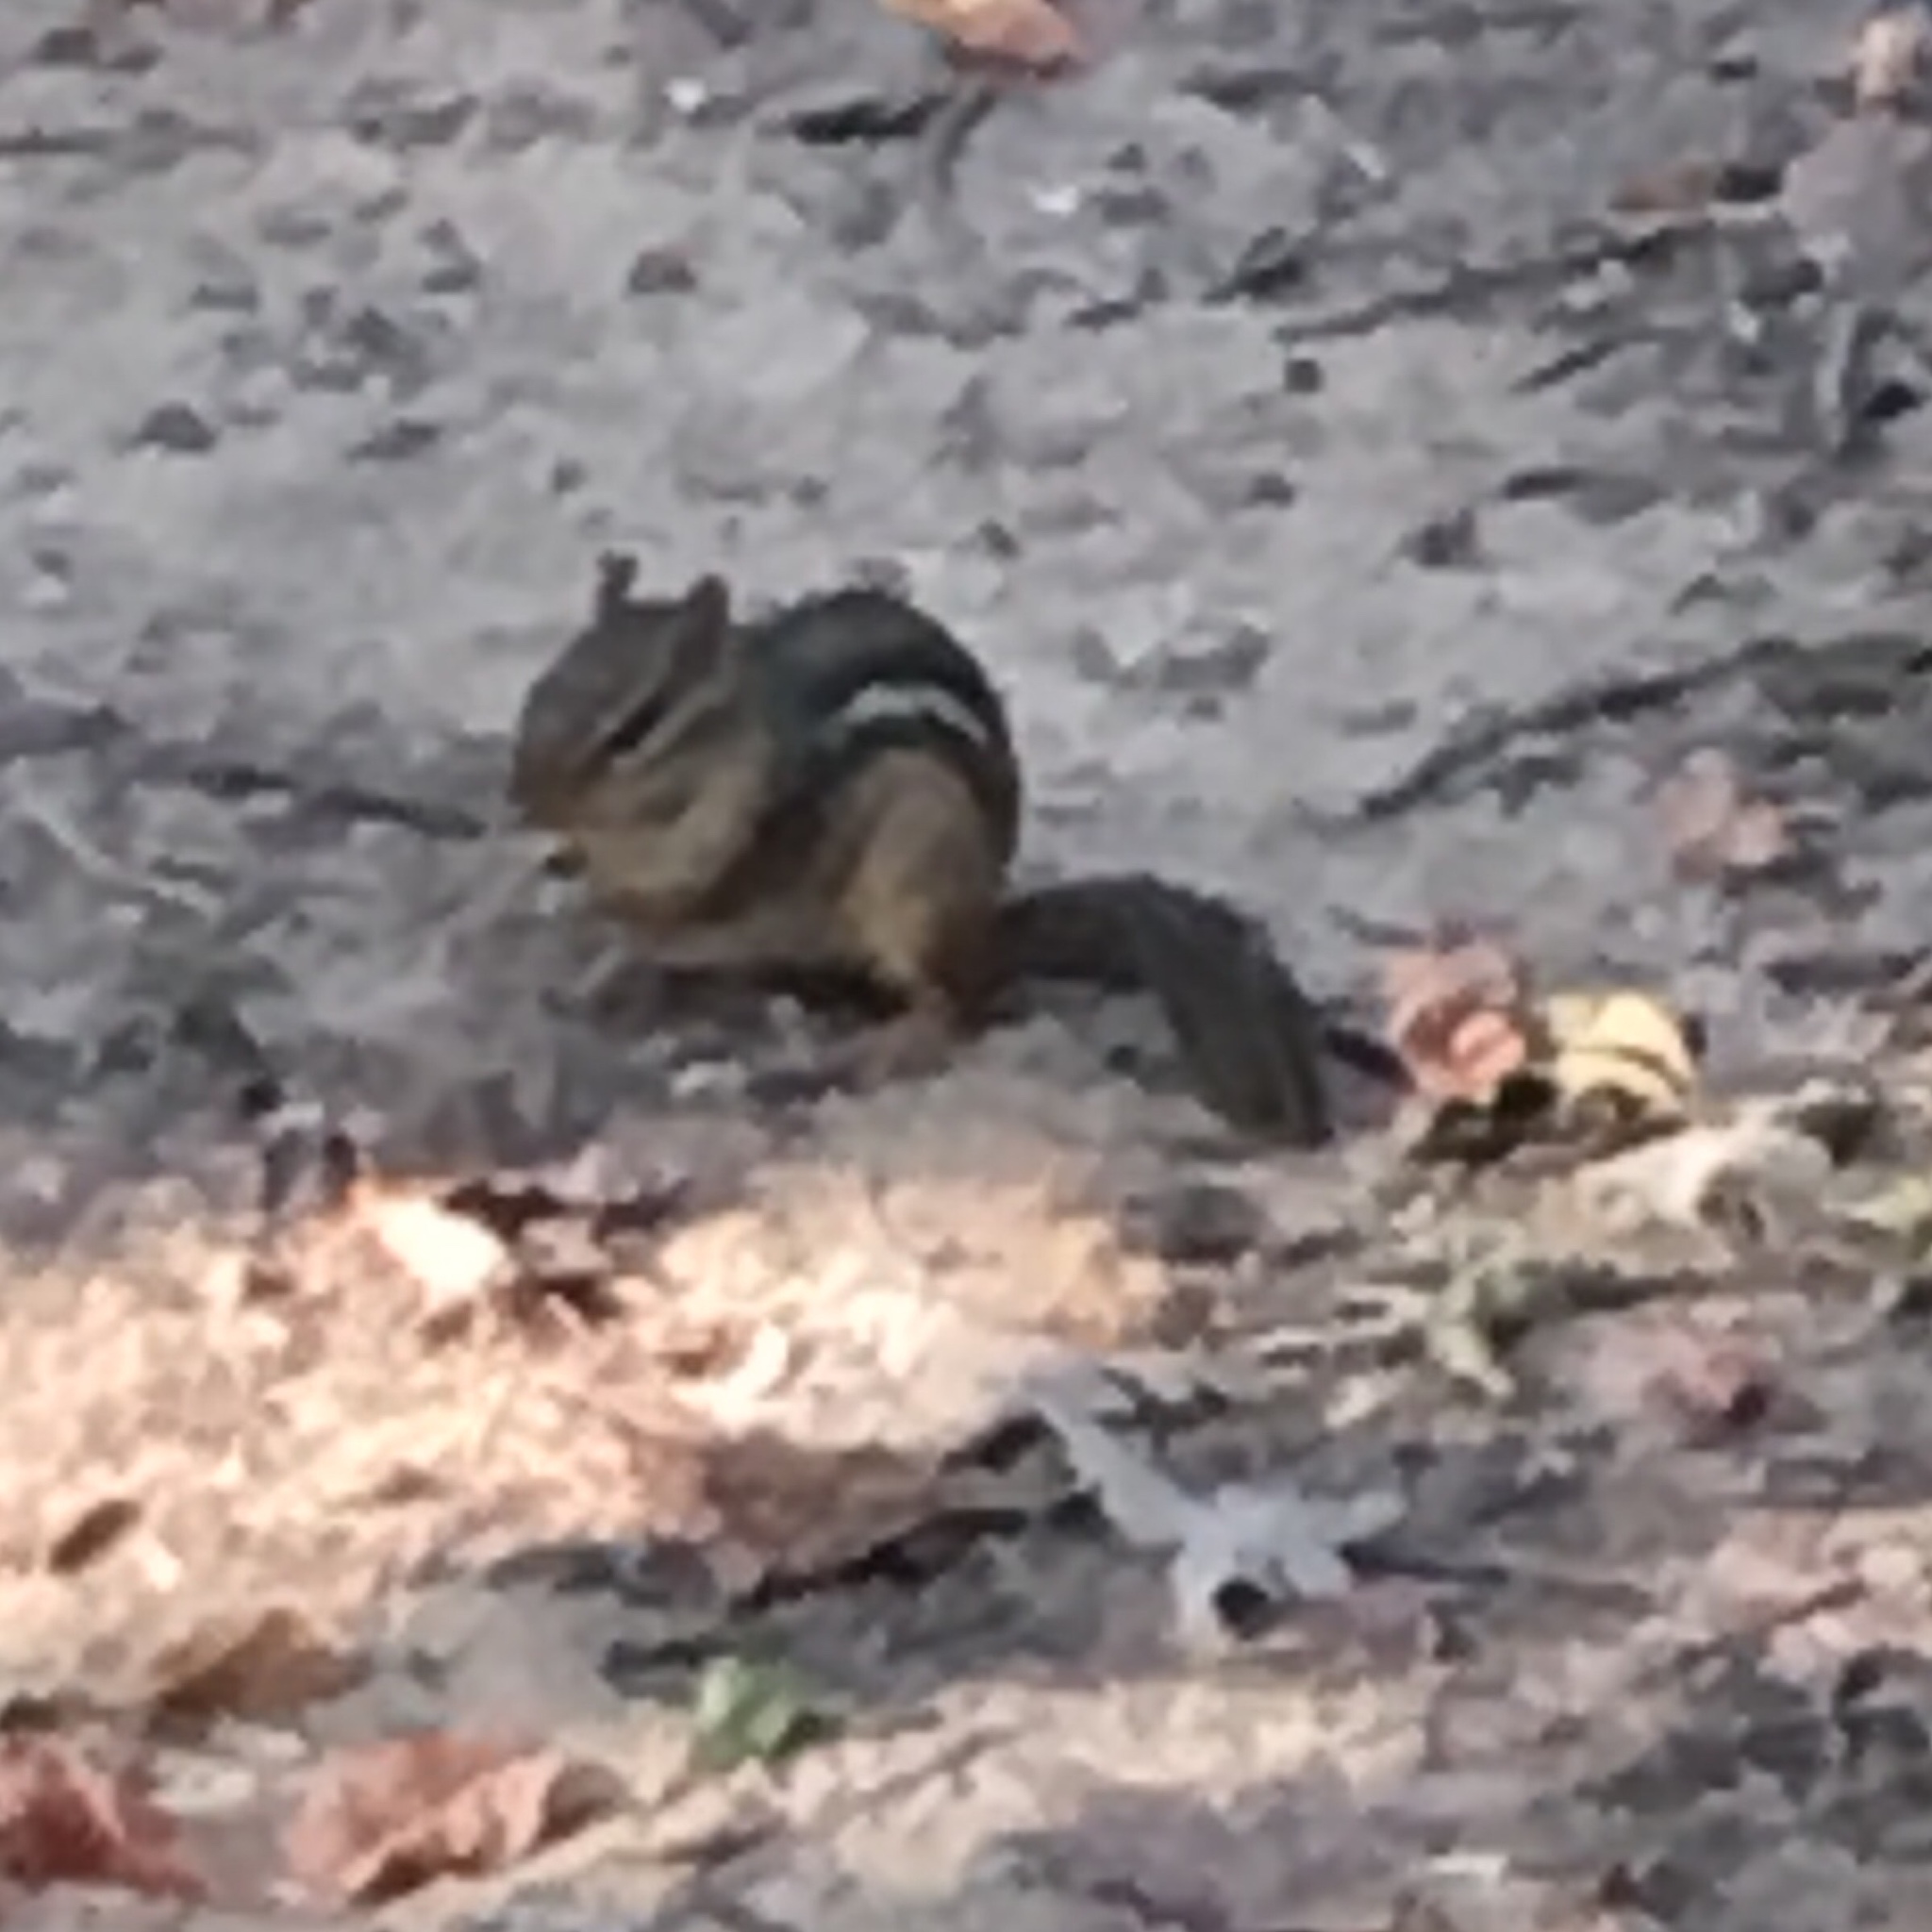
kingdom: Animalia
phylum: Chordata
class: Mammalia
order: Rodentia
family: Sciuridae
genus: Tamias
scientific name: Tamias striatus
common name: Eastern chipmunk
